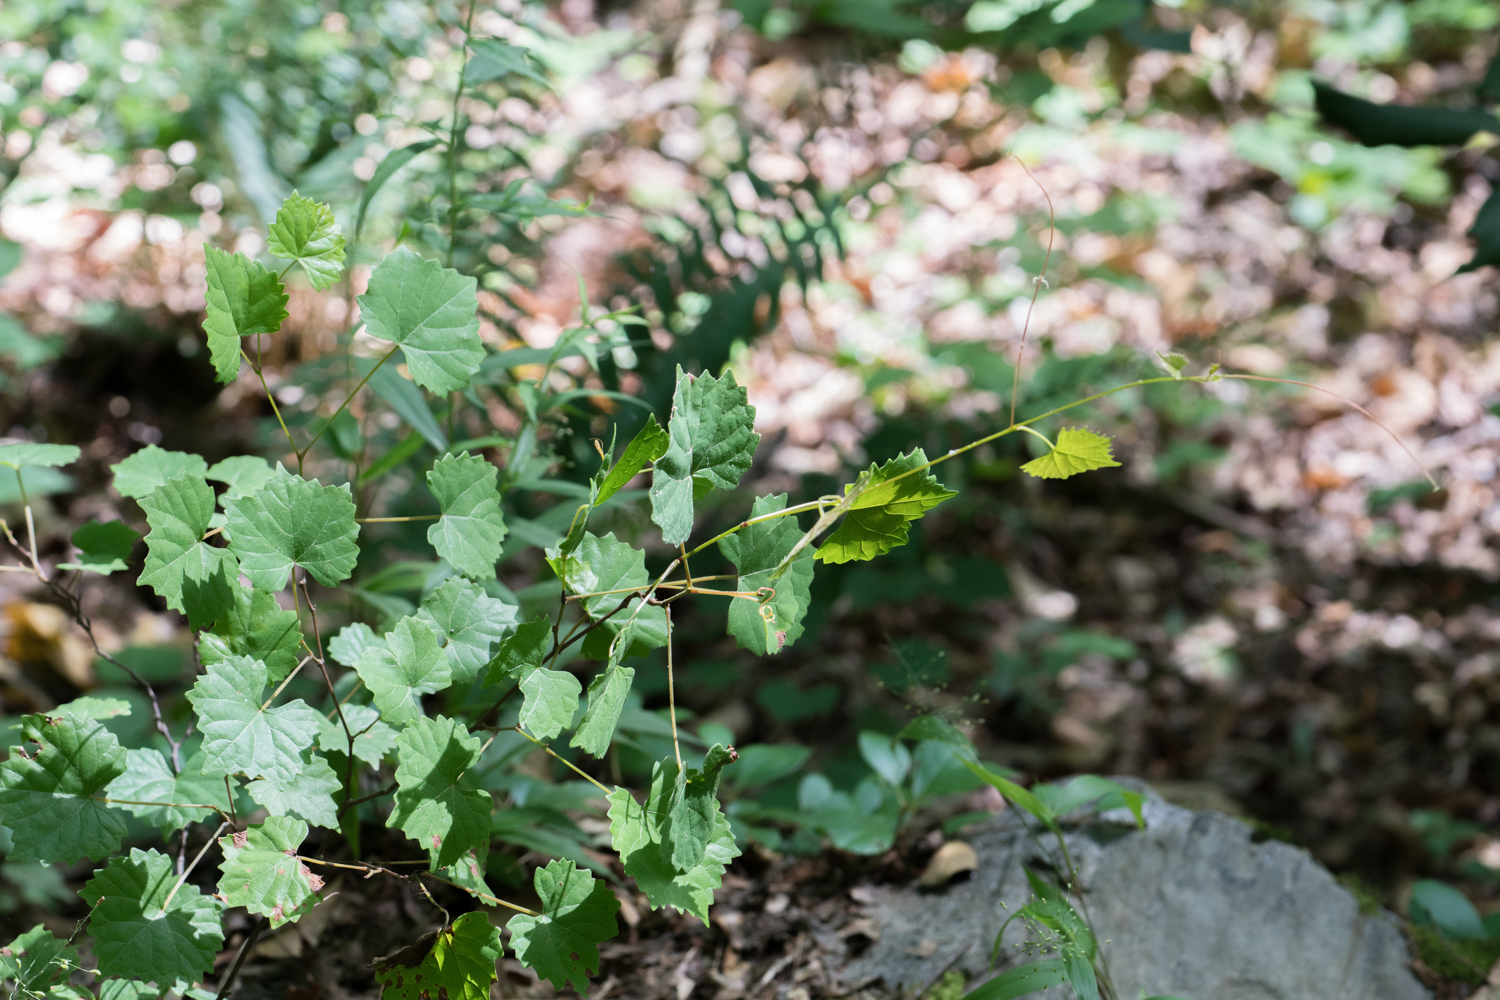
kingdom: Plantae
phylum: Tracheophyta
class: Magnoliopsida
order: Vitales
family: Vitaceae
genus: Vitis
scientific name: Vitis rotundifolia
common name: Muscadine grape
